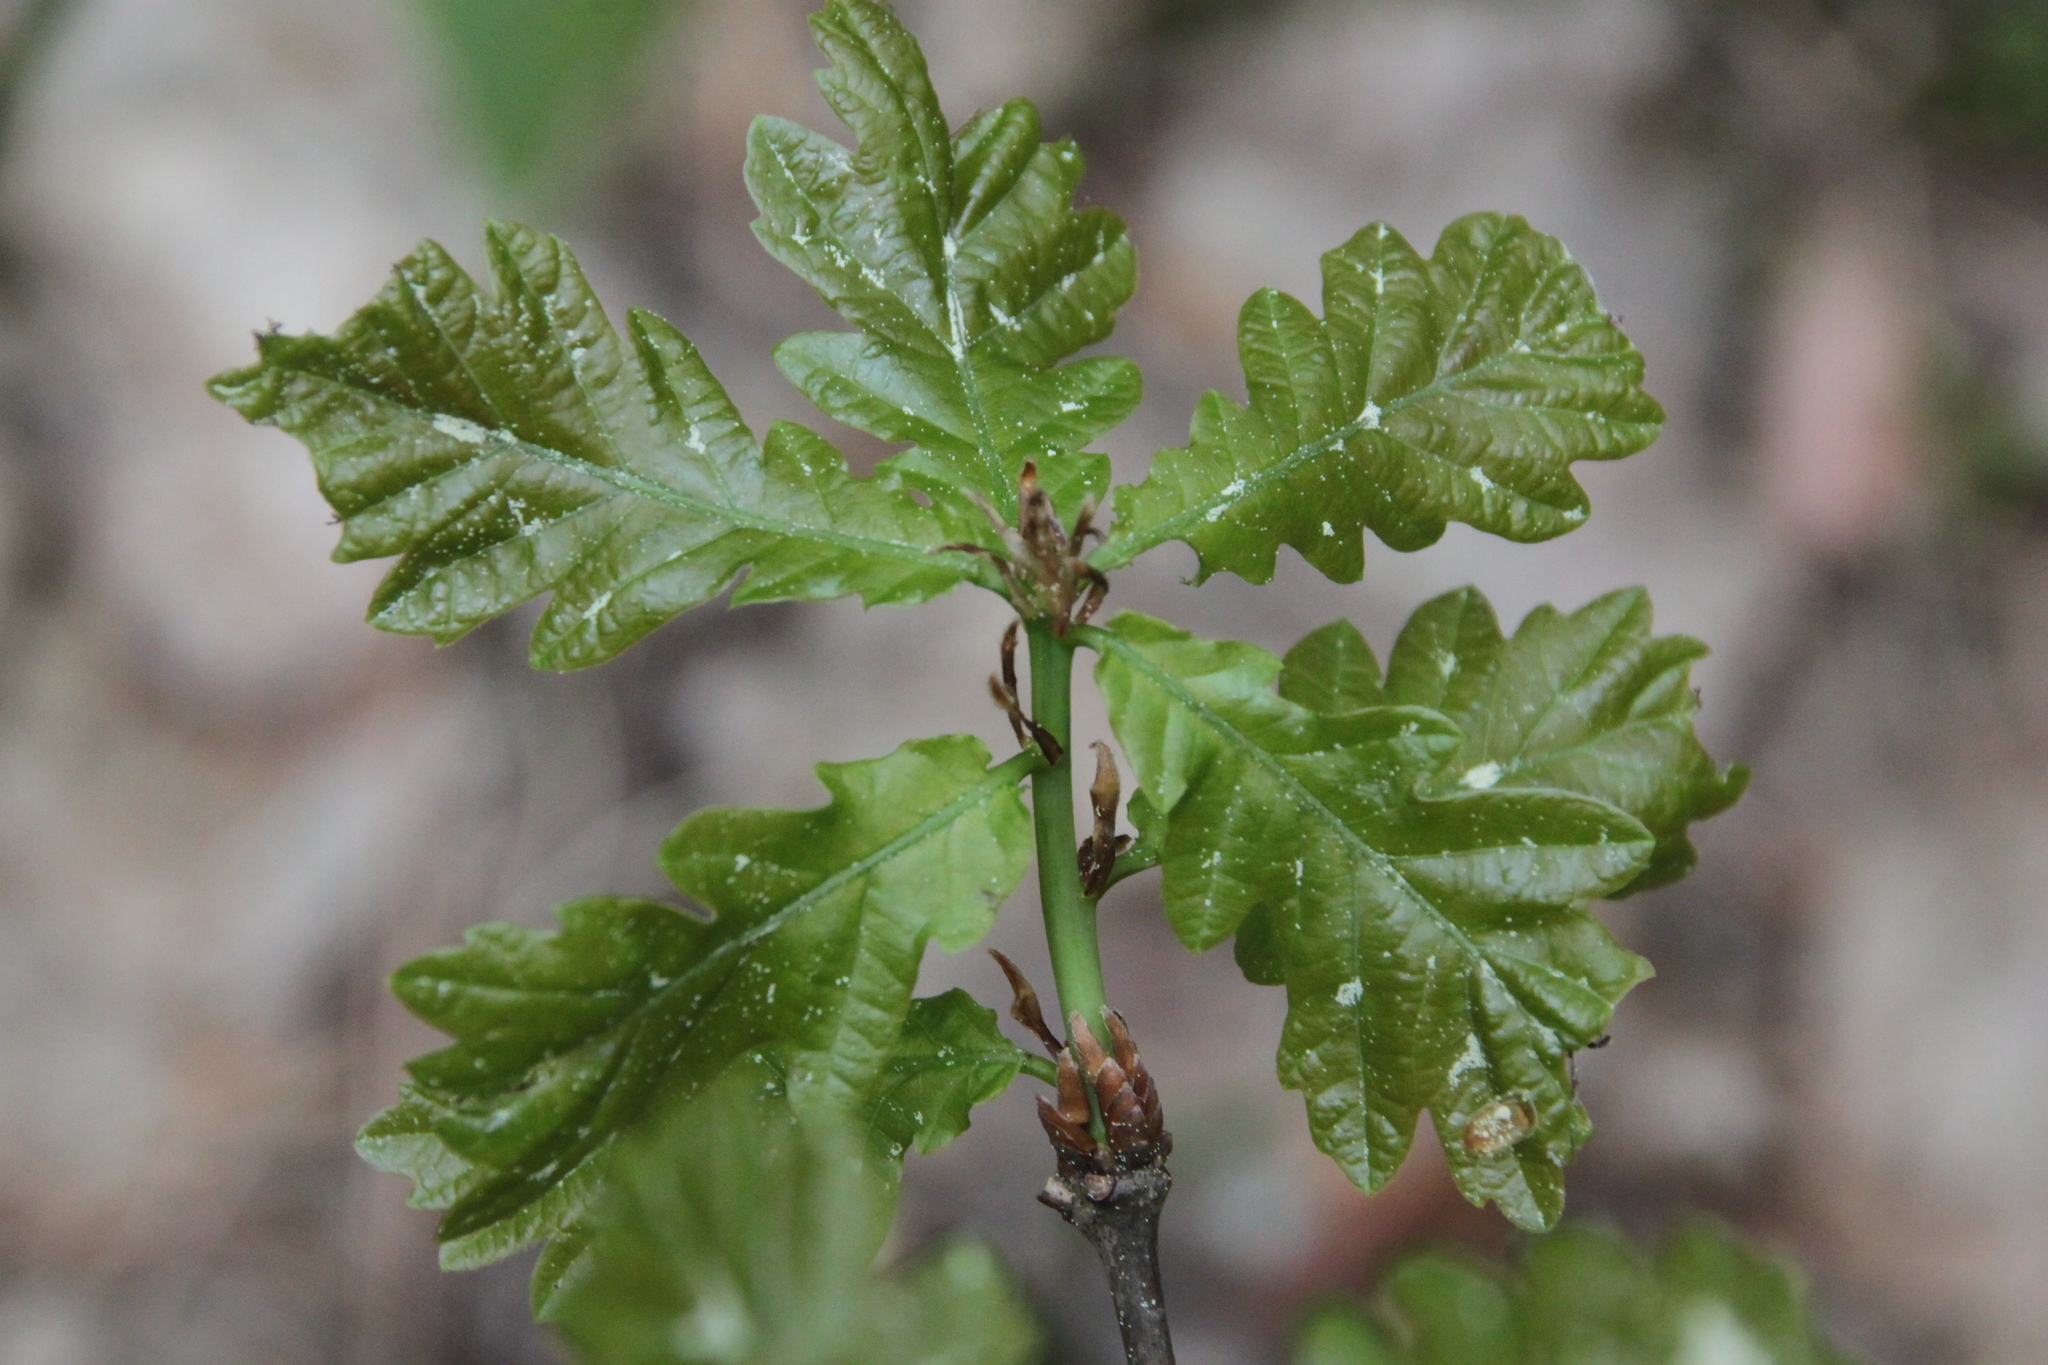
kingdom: Plantae
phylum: Tracheophyta
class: Magnoliopsida
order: Fagales
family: Fagaceae
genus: Quercus
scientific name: Quercus robur
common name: Pedunculate oak
